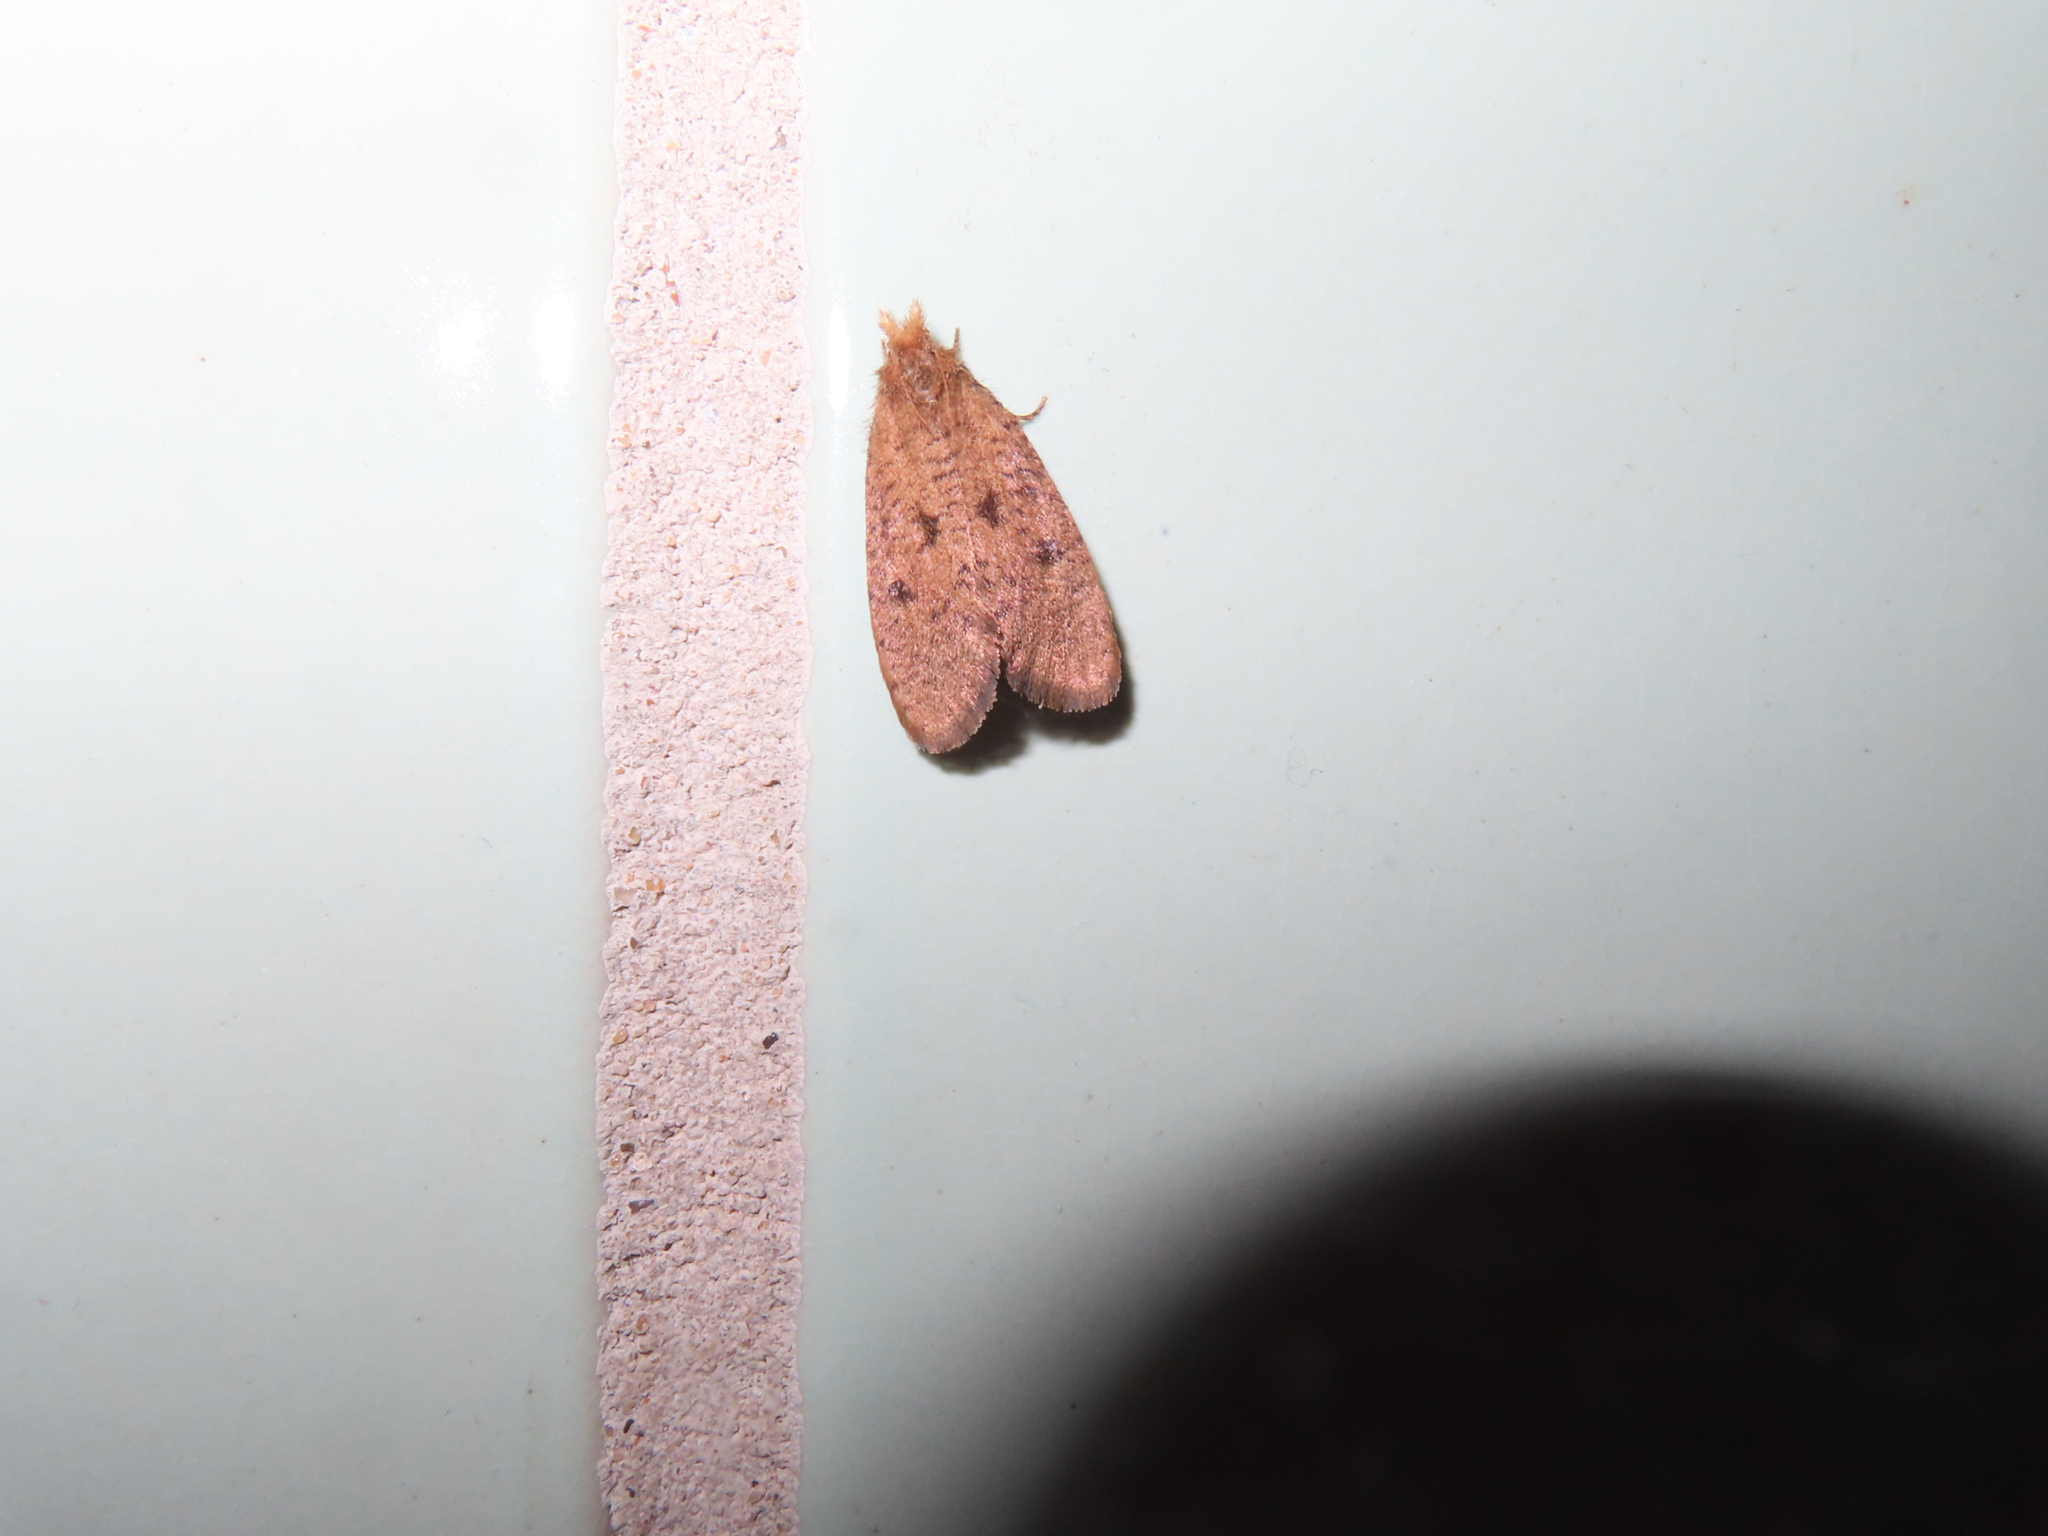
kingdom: Animalia
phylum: Arthropoda
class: Insecta
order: Lepidoptera
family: Tineidae
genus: Acrolophus
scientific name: Acrolophus propinqua
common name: Walsingham's grass tubeworm moth
